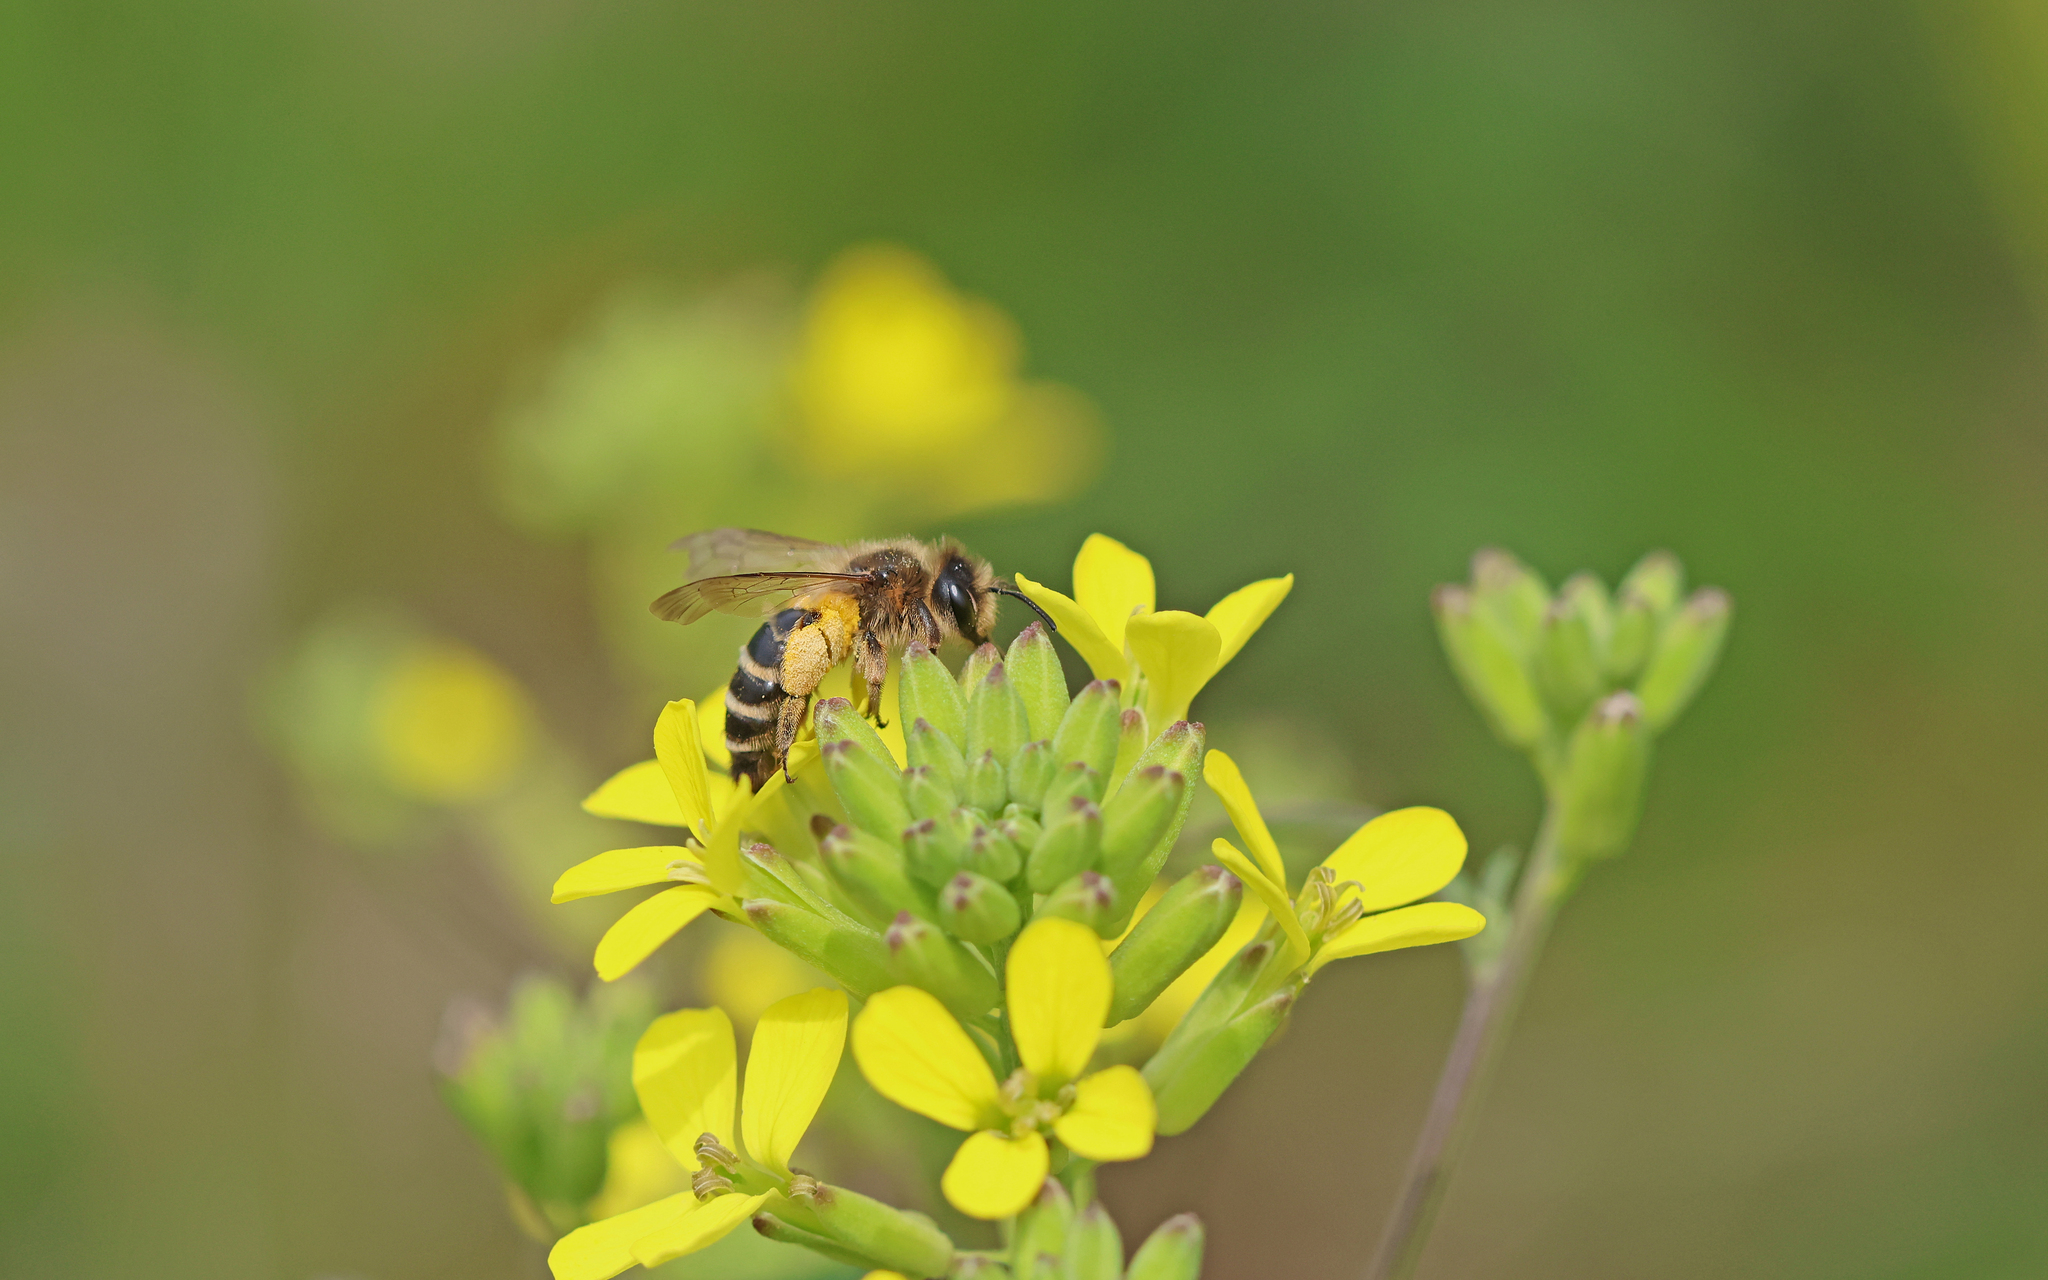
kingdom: Animalia
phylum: Arthropoda
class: Insecta
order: Hymenoptera
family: Andrenidae
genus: Andrena
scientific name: Andrena flavipes
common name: Yellow-legged mining bee
